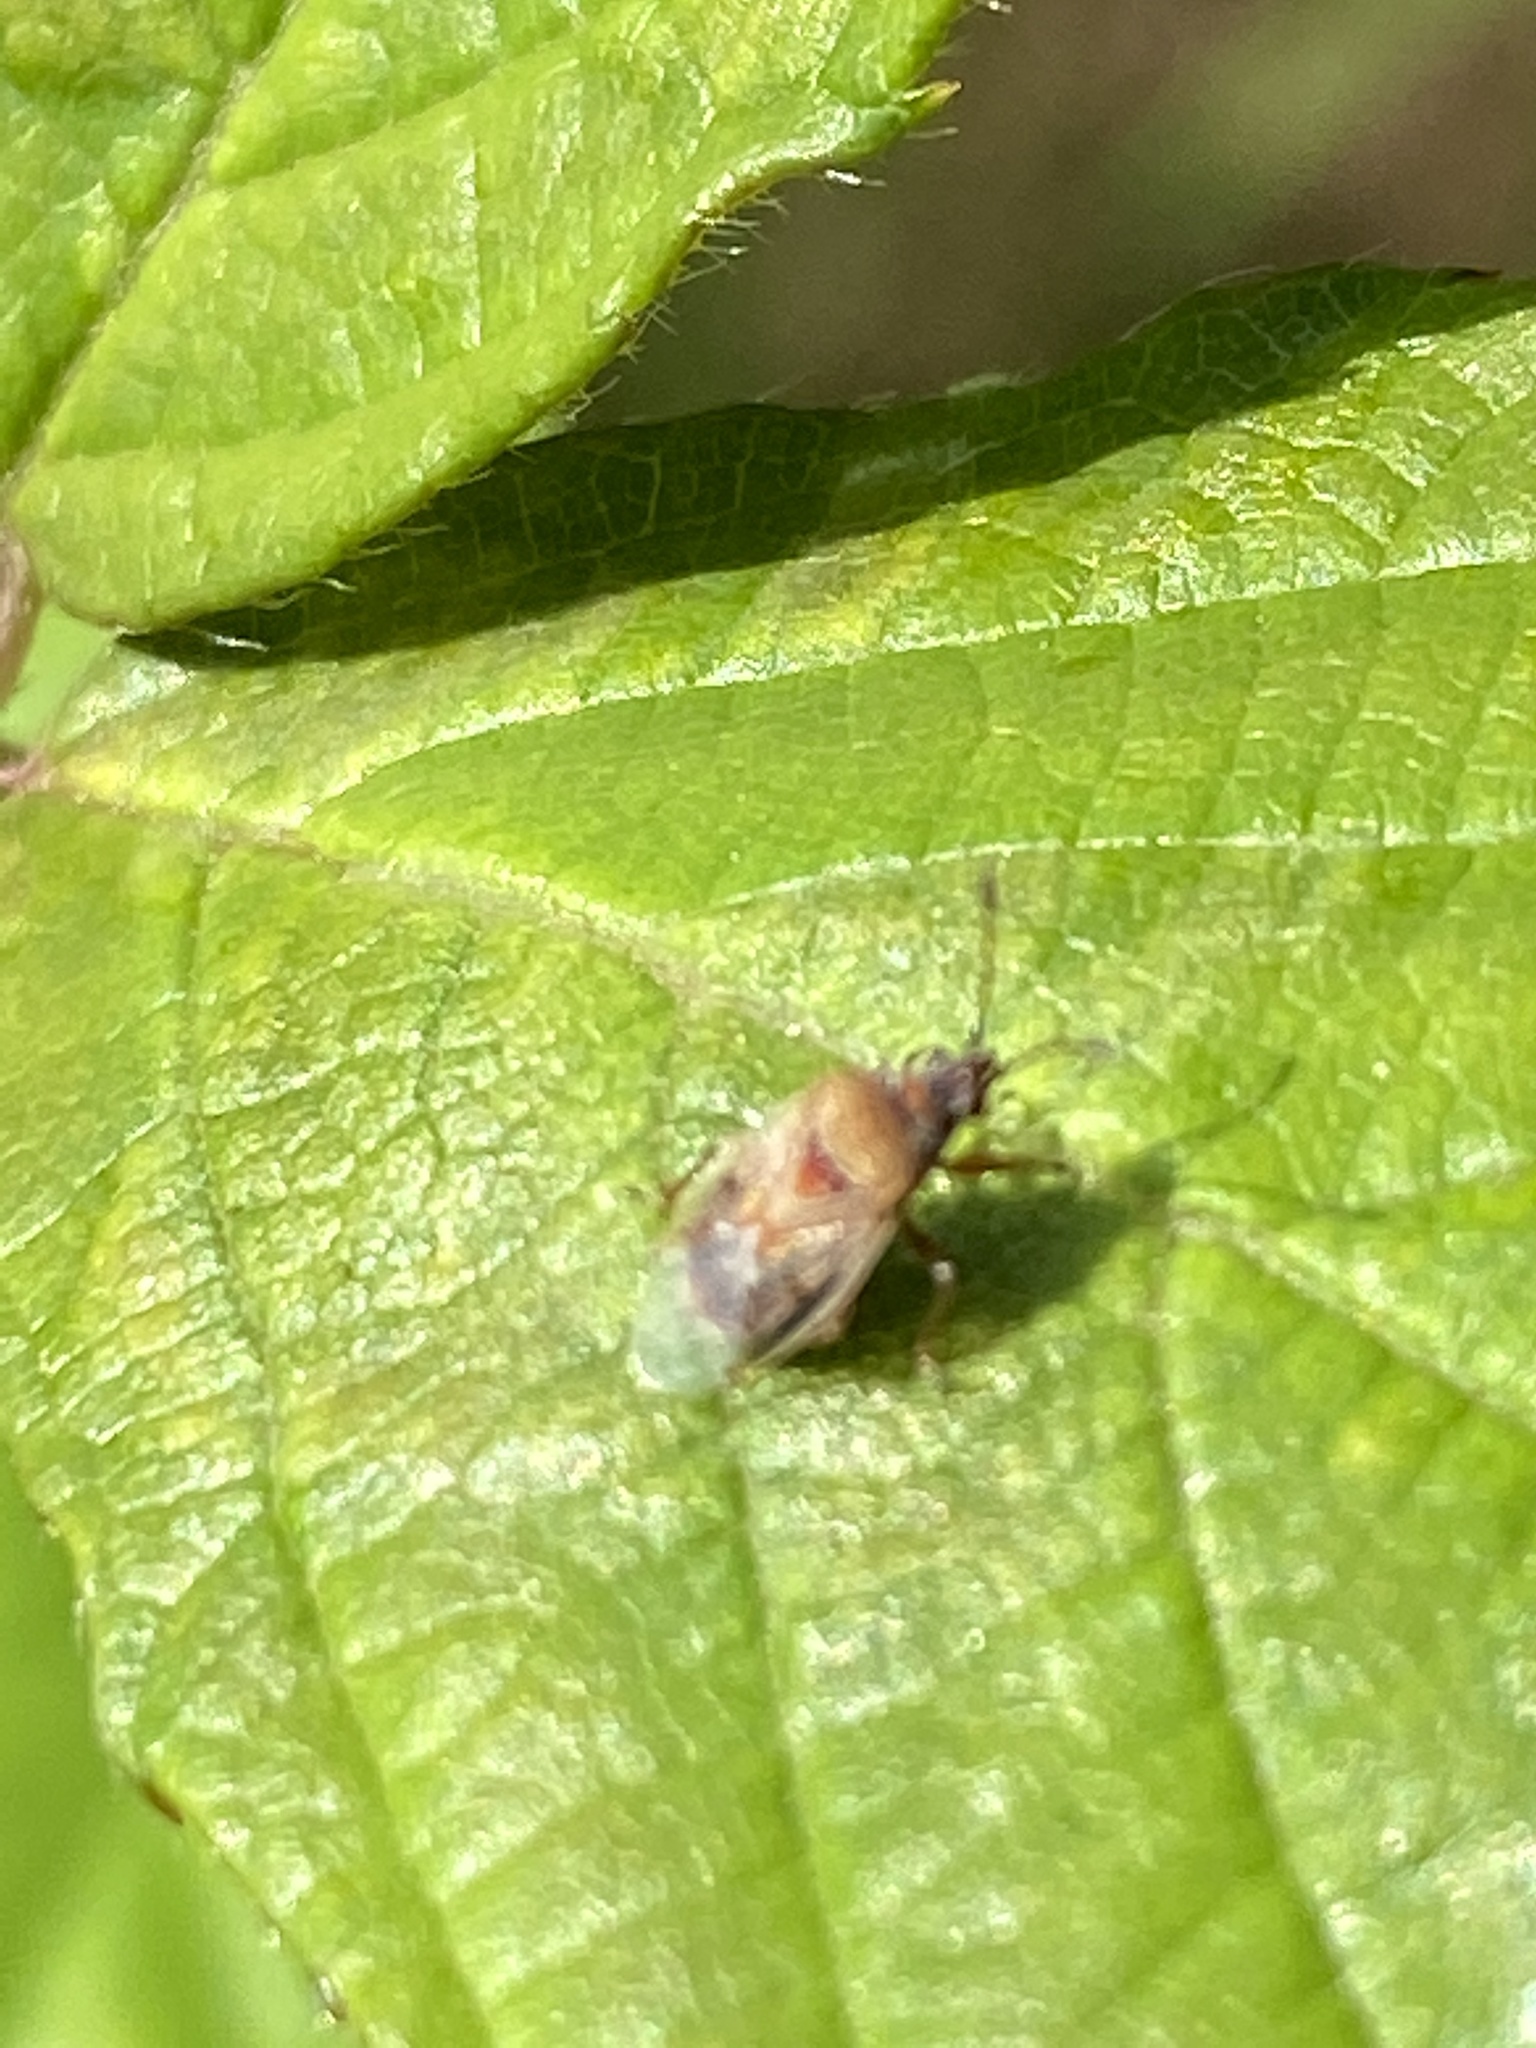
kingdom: Animalia
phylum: Arthropoda
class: Insecta
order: Hemiptera
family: Lygaeidae
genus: Kleidocerys
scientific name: Kleidocerys resedae
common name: Birch catkin bug
